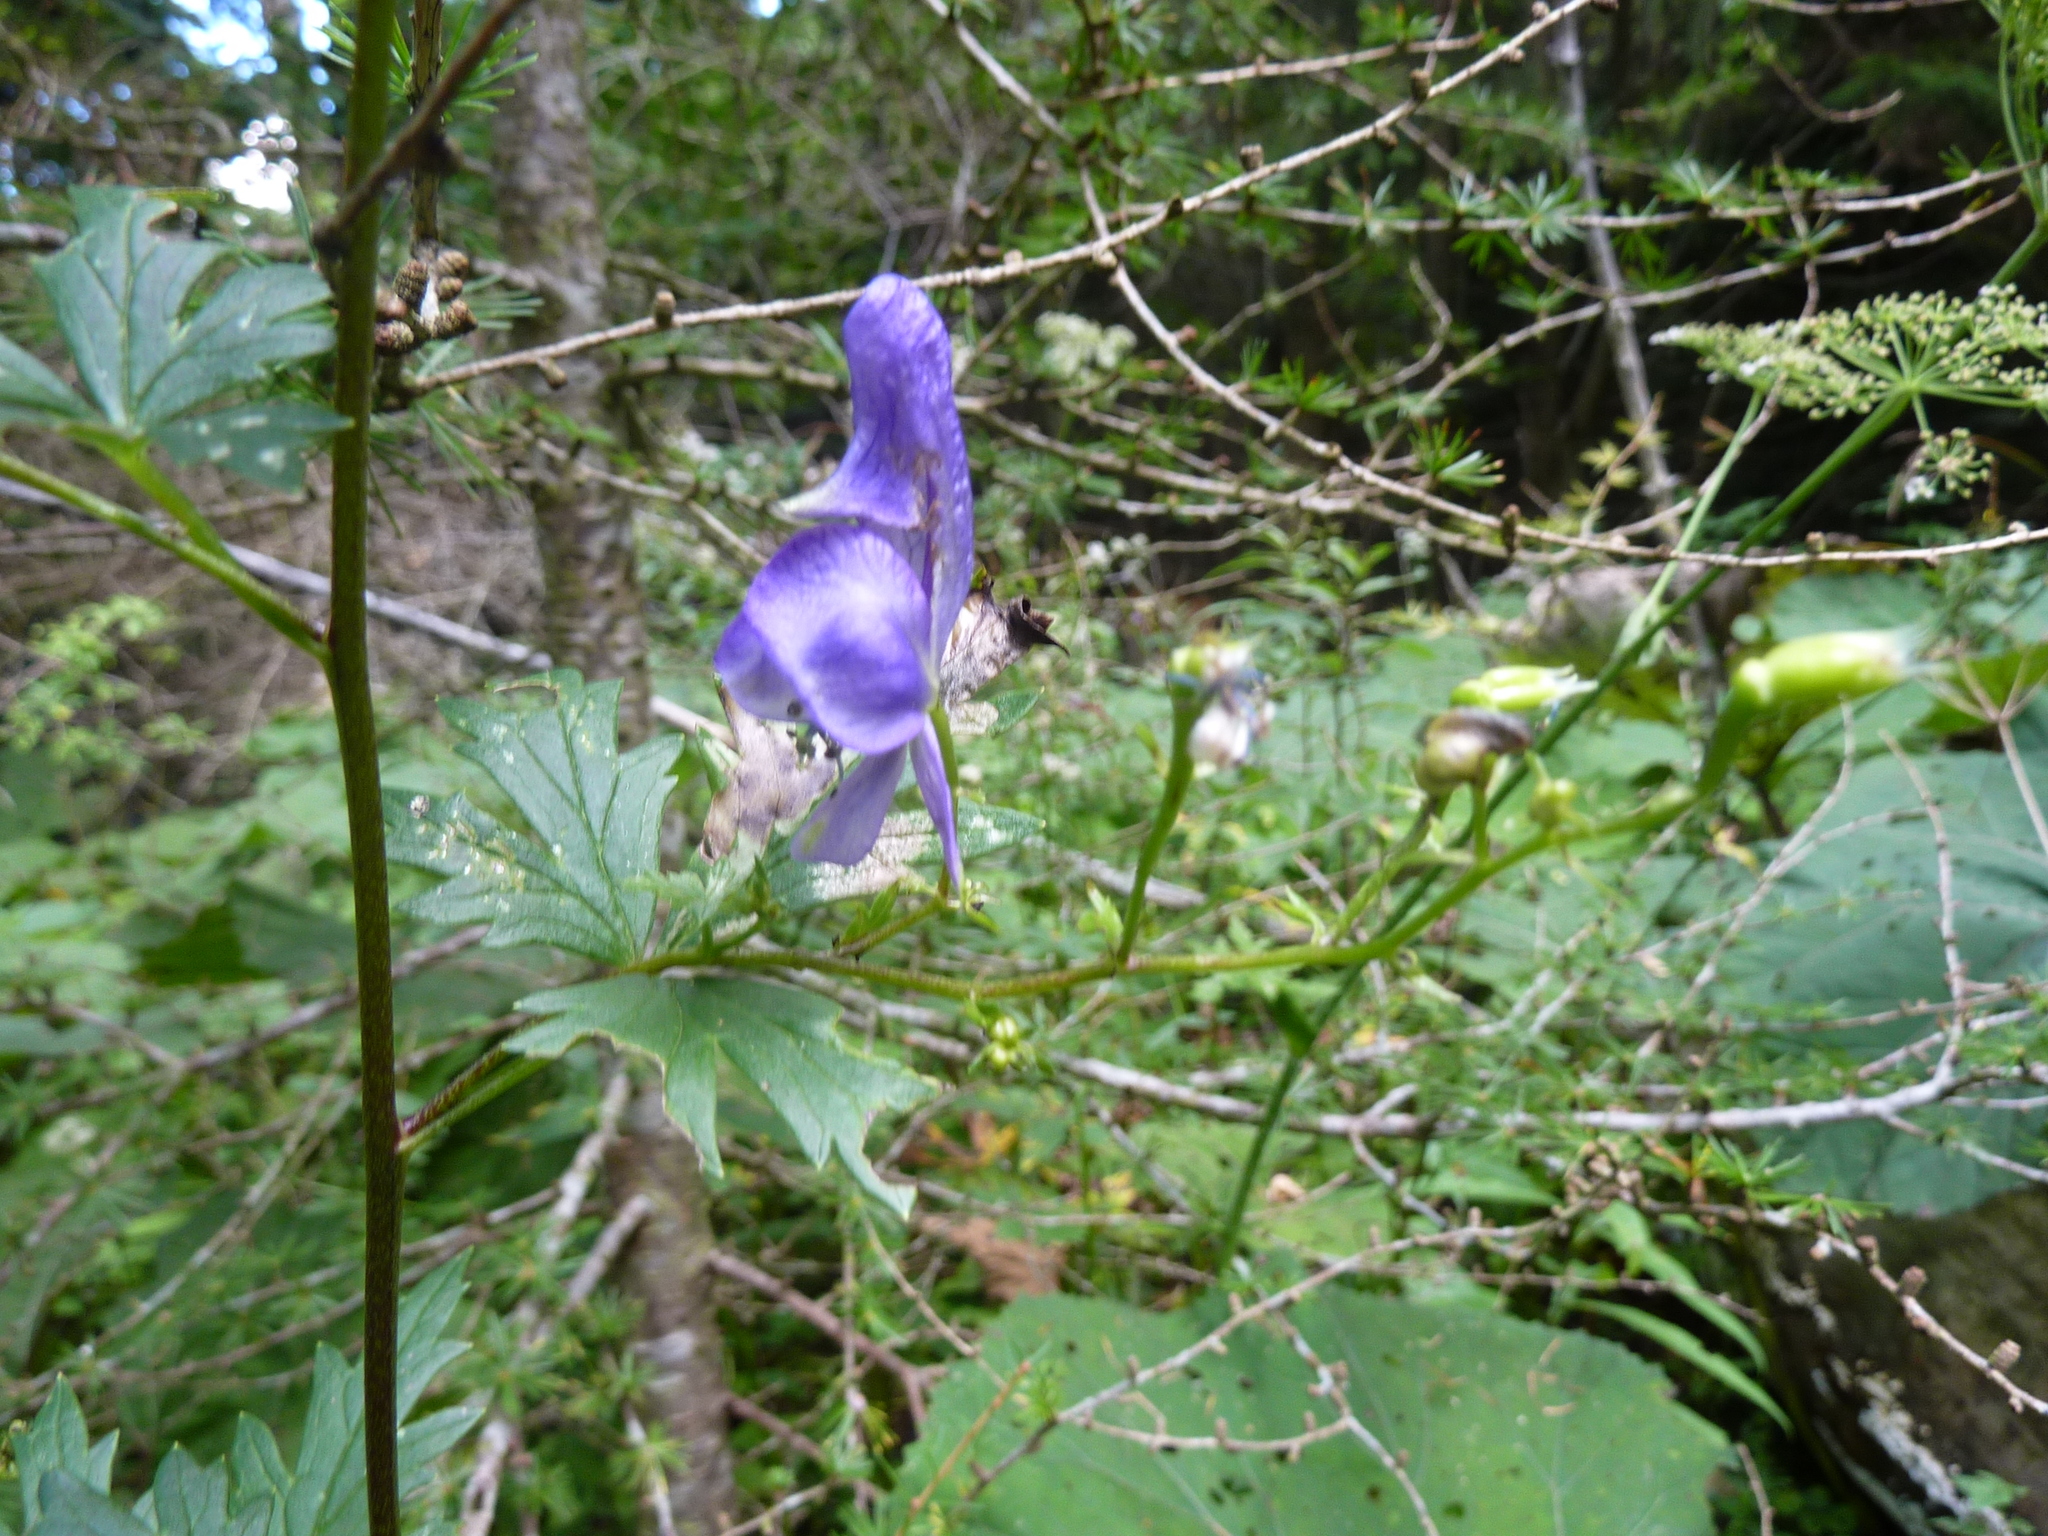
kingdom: Plantae
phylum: Tracheophyta
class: Magnoliopsida
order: Ranunculales
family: Ranunculaceae
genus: Aconitum
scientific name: Aconitum variegatum
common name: Manchurian monkshood
